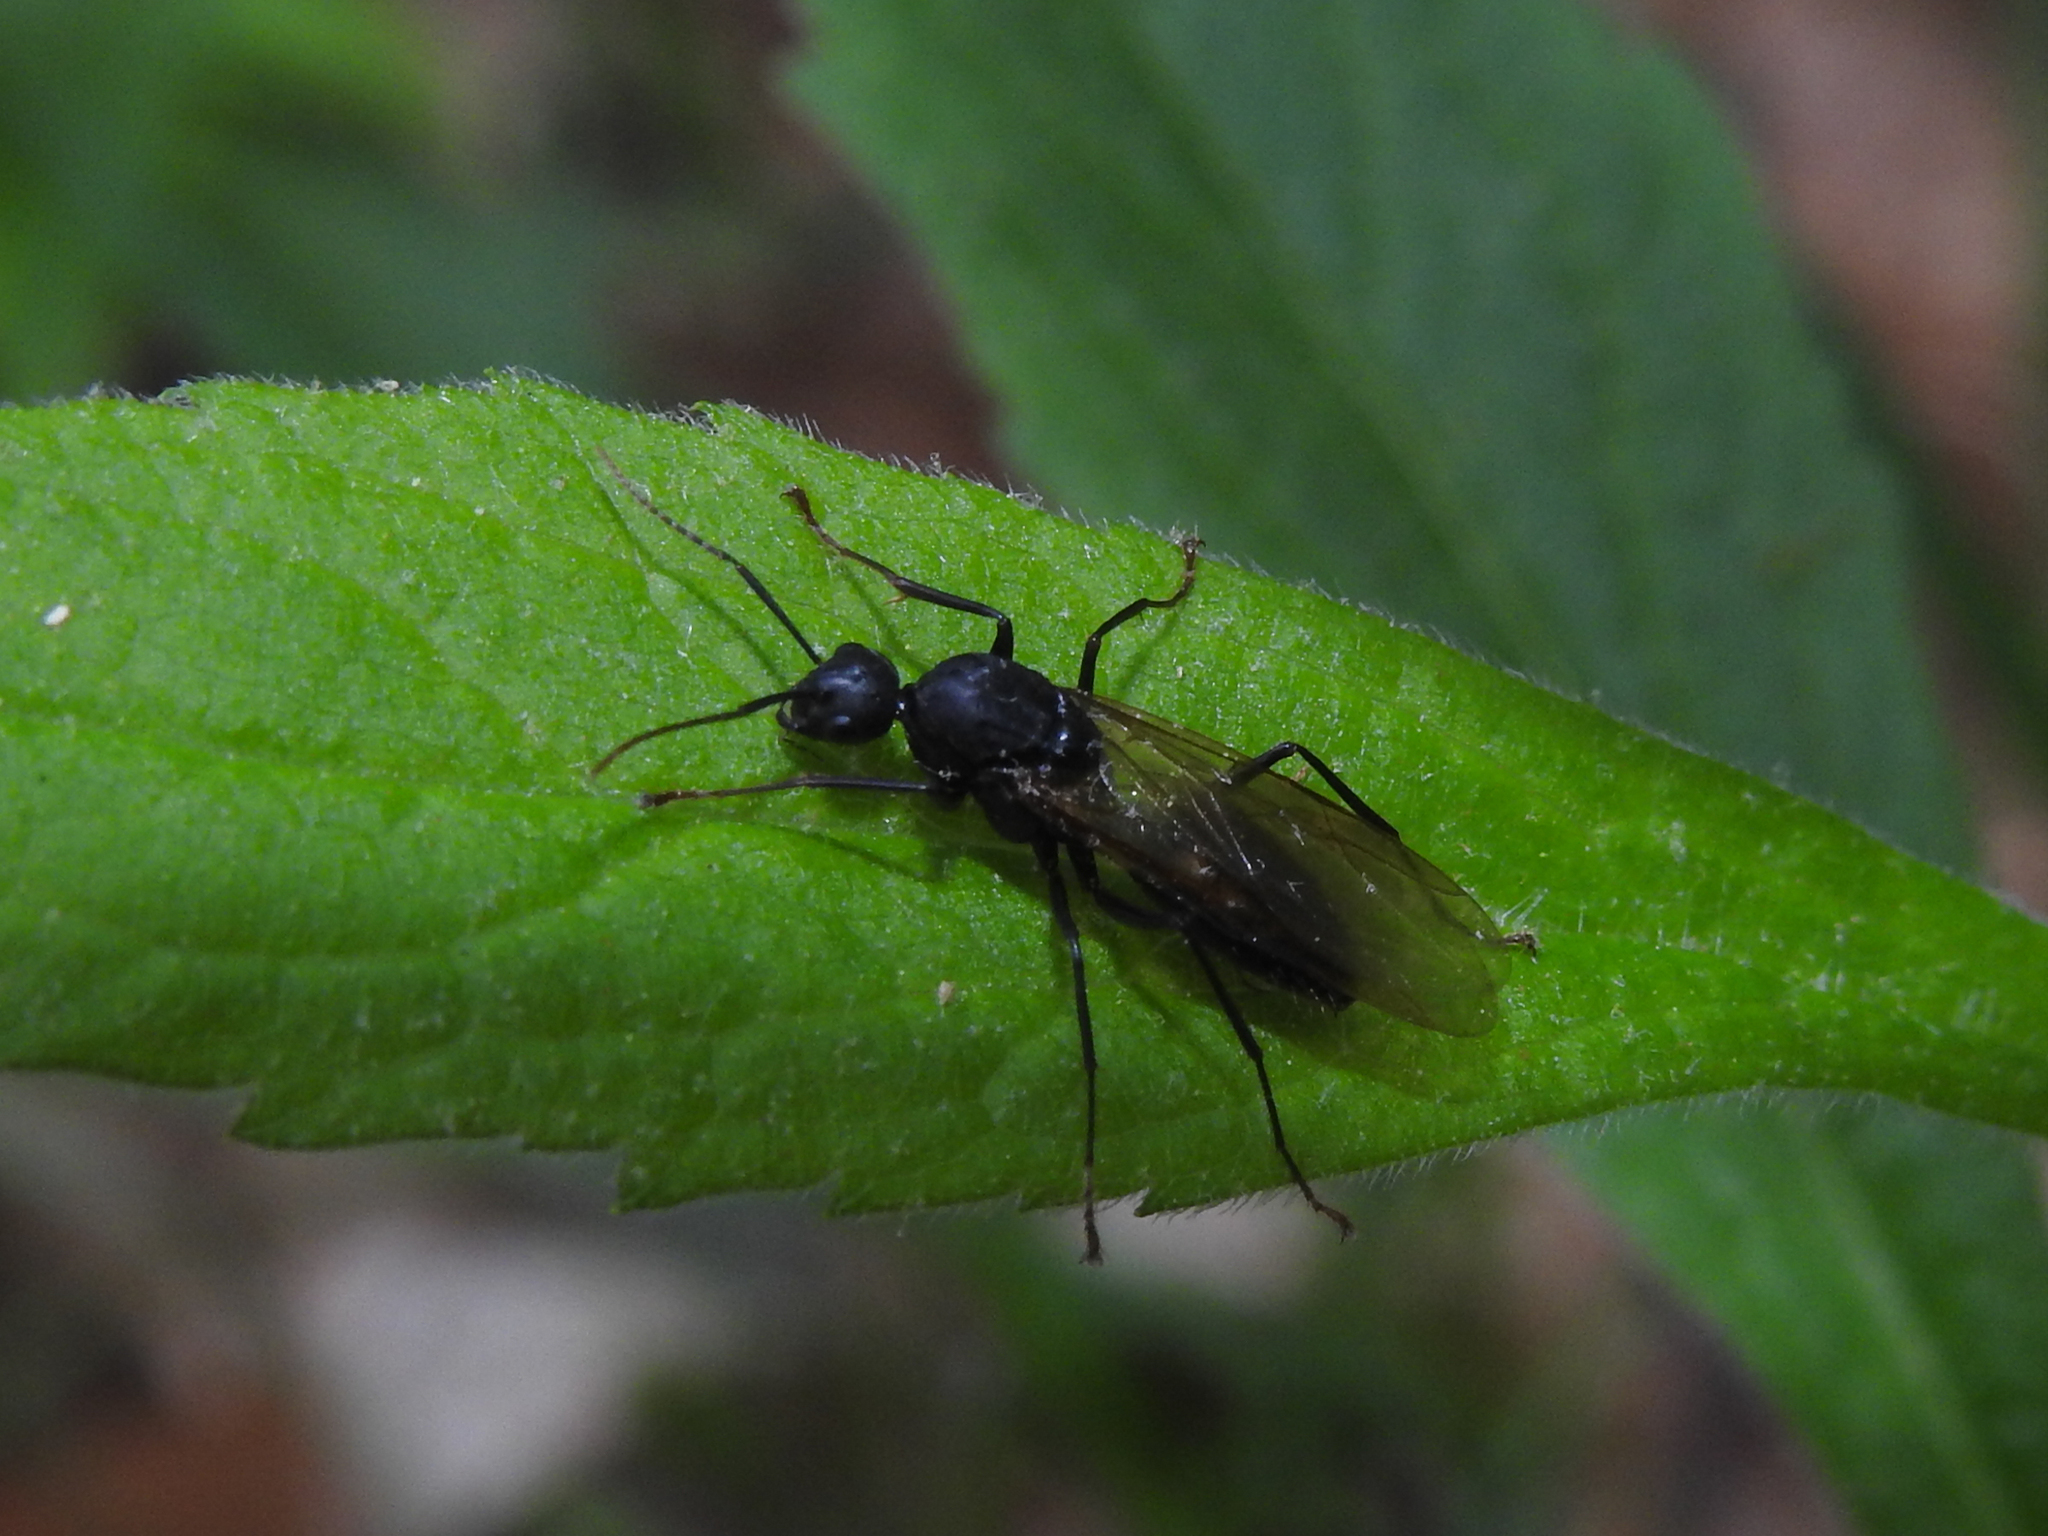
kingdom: Animalia
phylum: Arthropoda
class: Insecta
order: Hymenoptera
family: Formicidae
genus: Camponotus
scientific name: Camponotus pennsylvanicus
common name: Black carpenter ant
